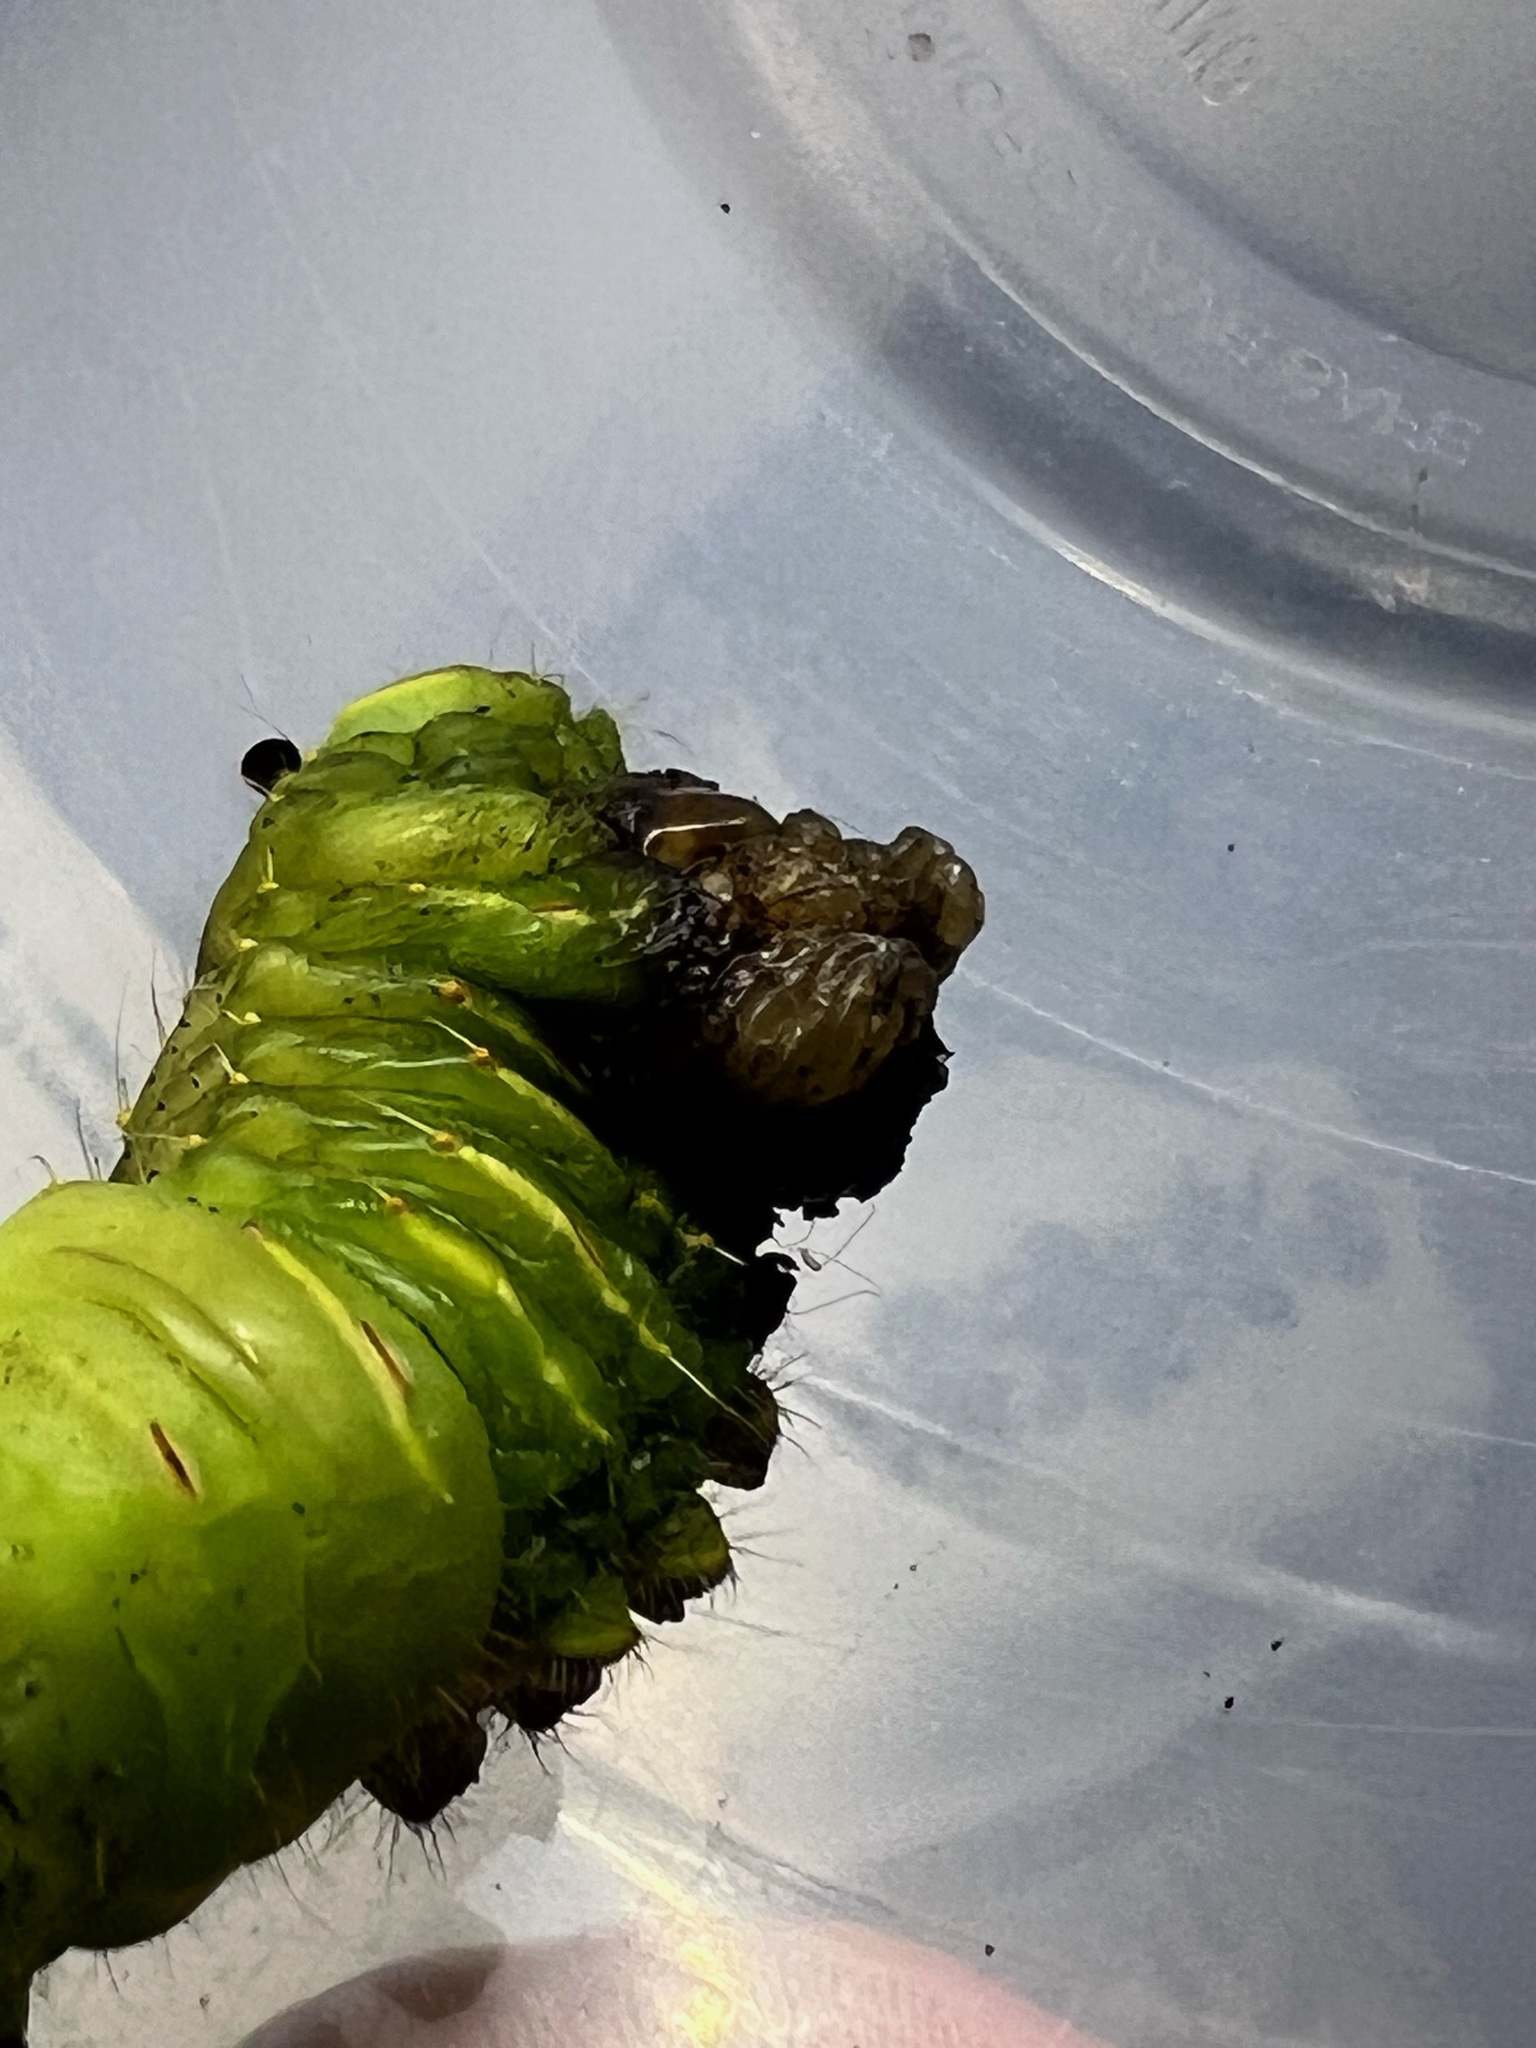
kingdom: Animalia
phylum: Arthropoda
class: Insecta
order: Lepidoptera
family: Saturniidae
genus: Antheraea
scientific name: Antheraea polyphemus
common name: Polyphemus moth
